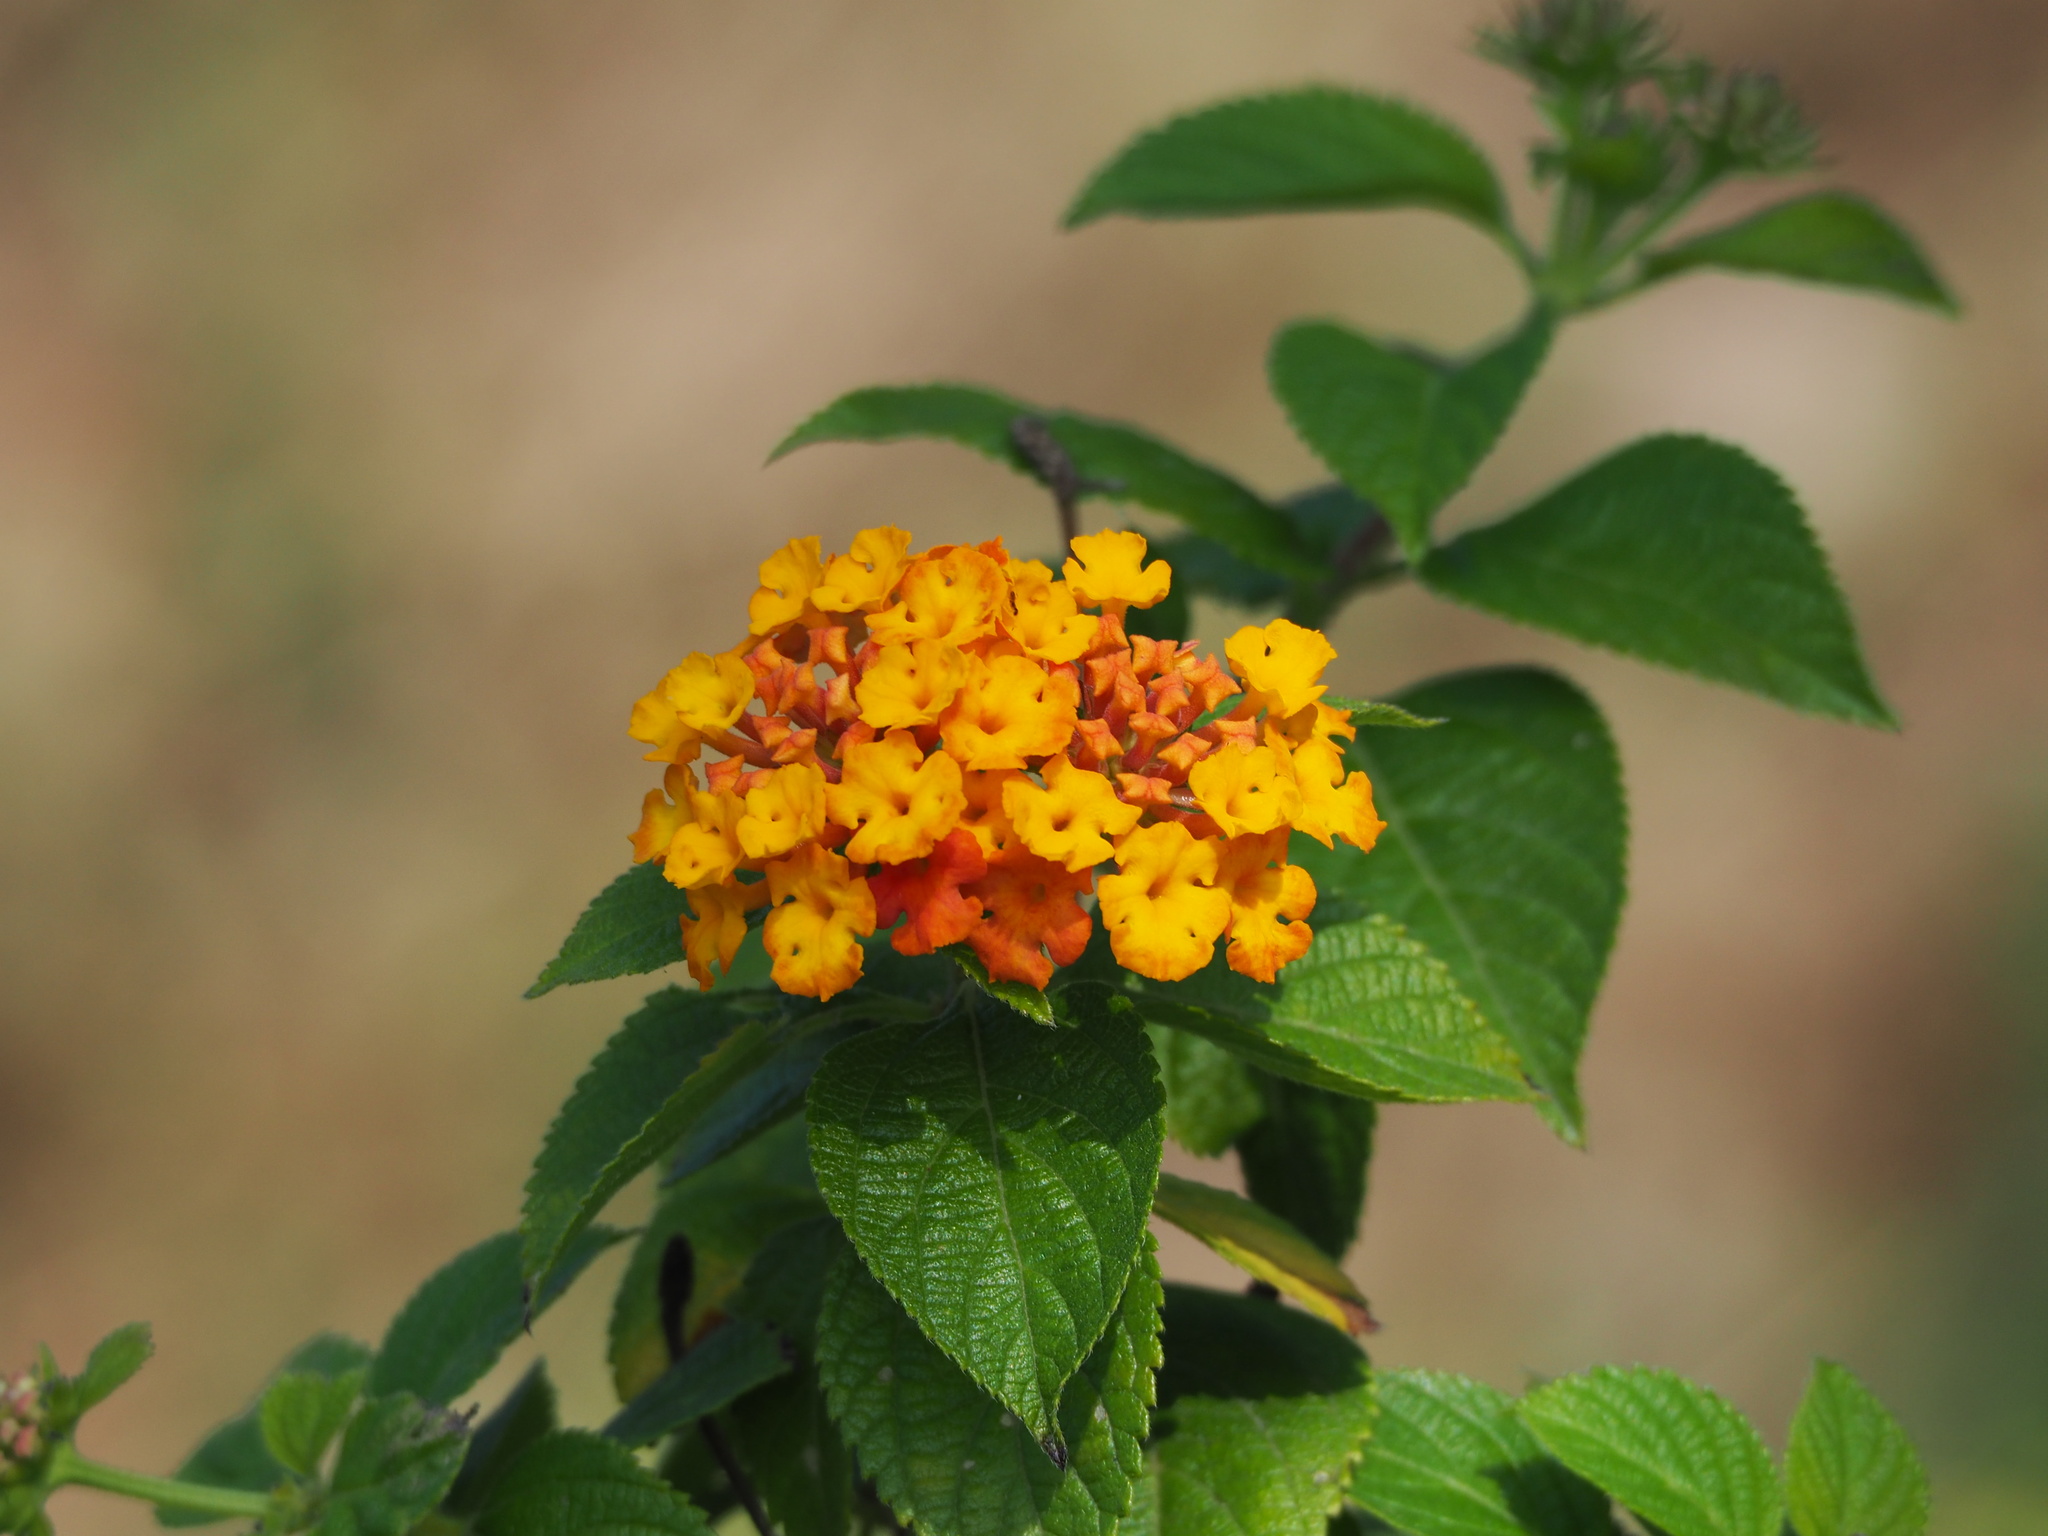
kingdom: Plantae
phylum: Tracheophyta
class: Magnoliopsida
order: Lamiales
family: Verbenaceae
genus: Lantana
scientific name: Lantana camara
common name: Lantana
